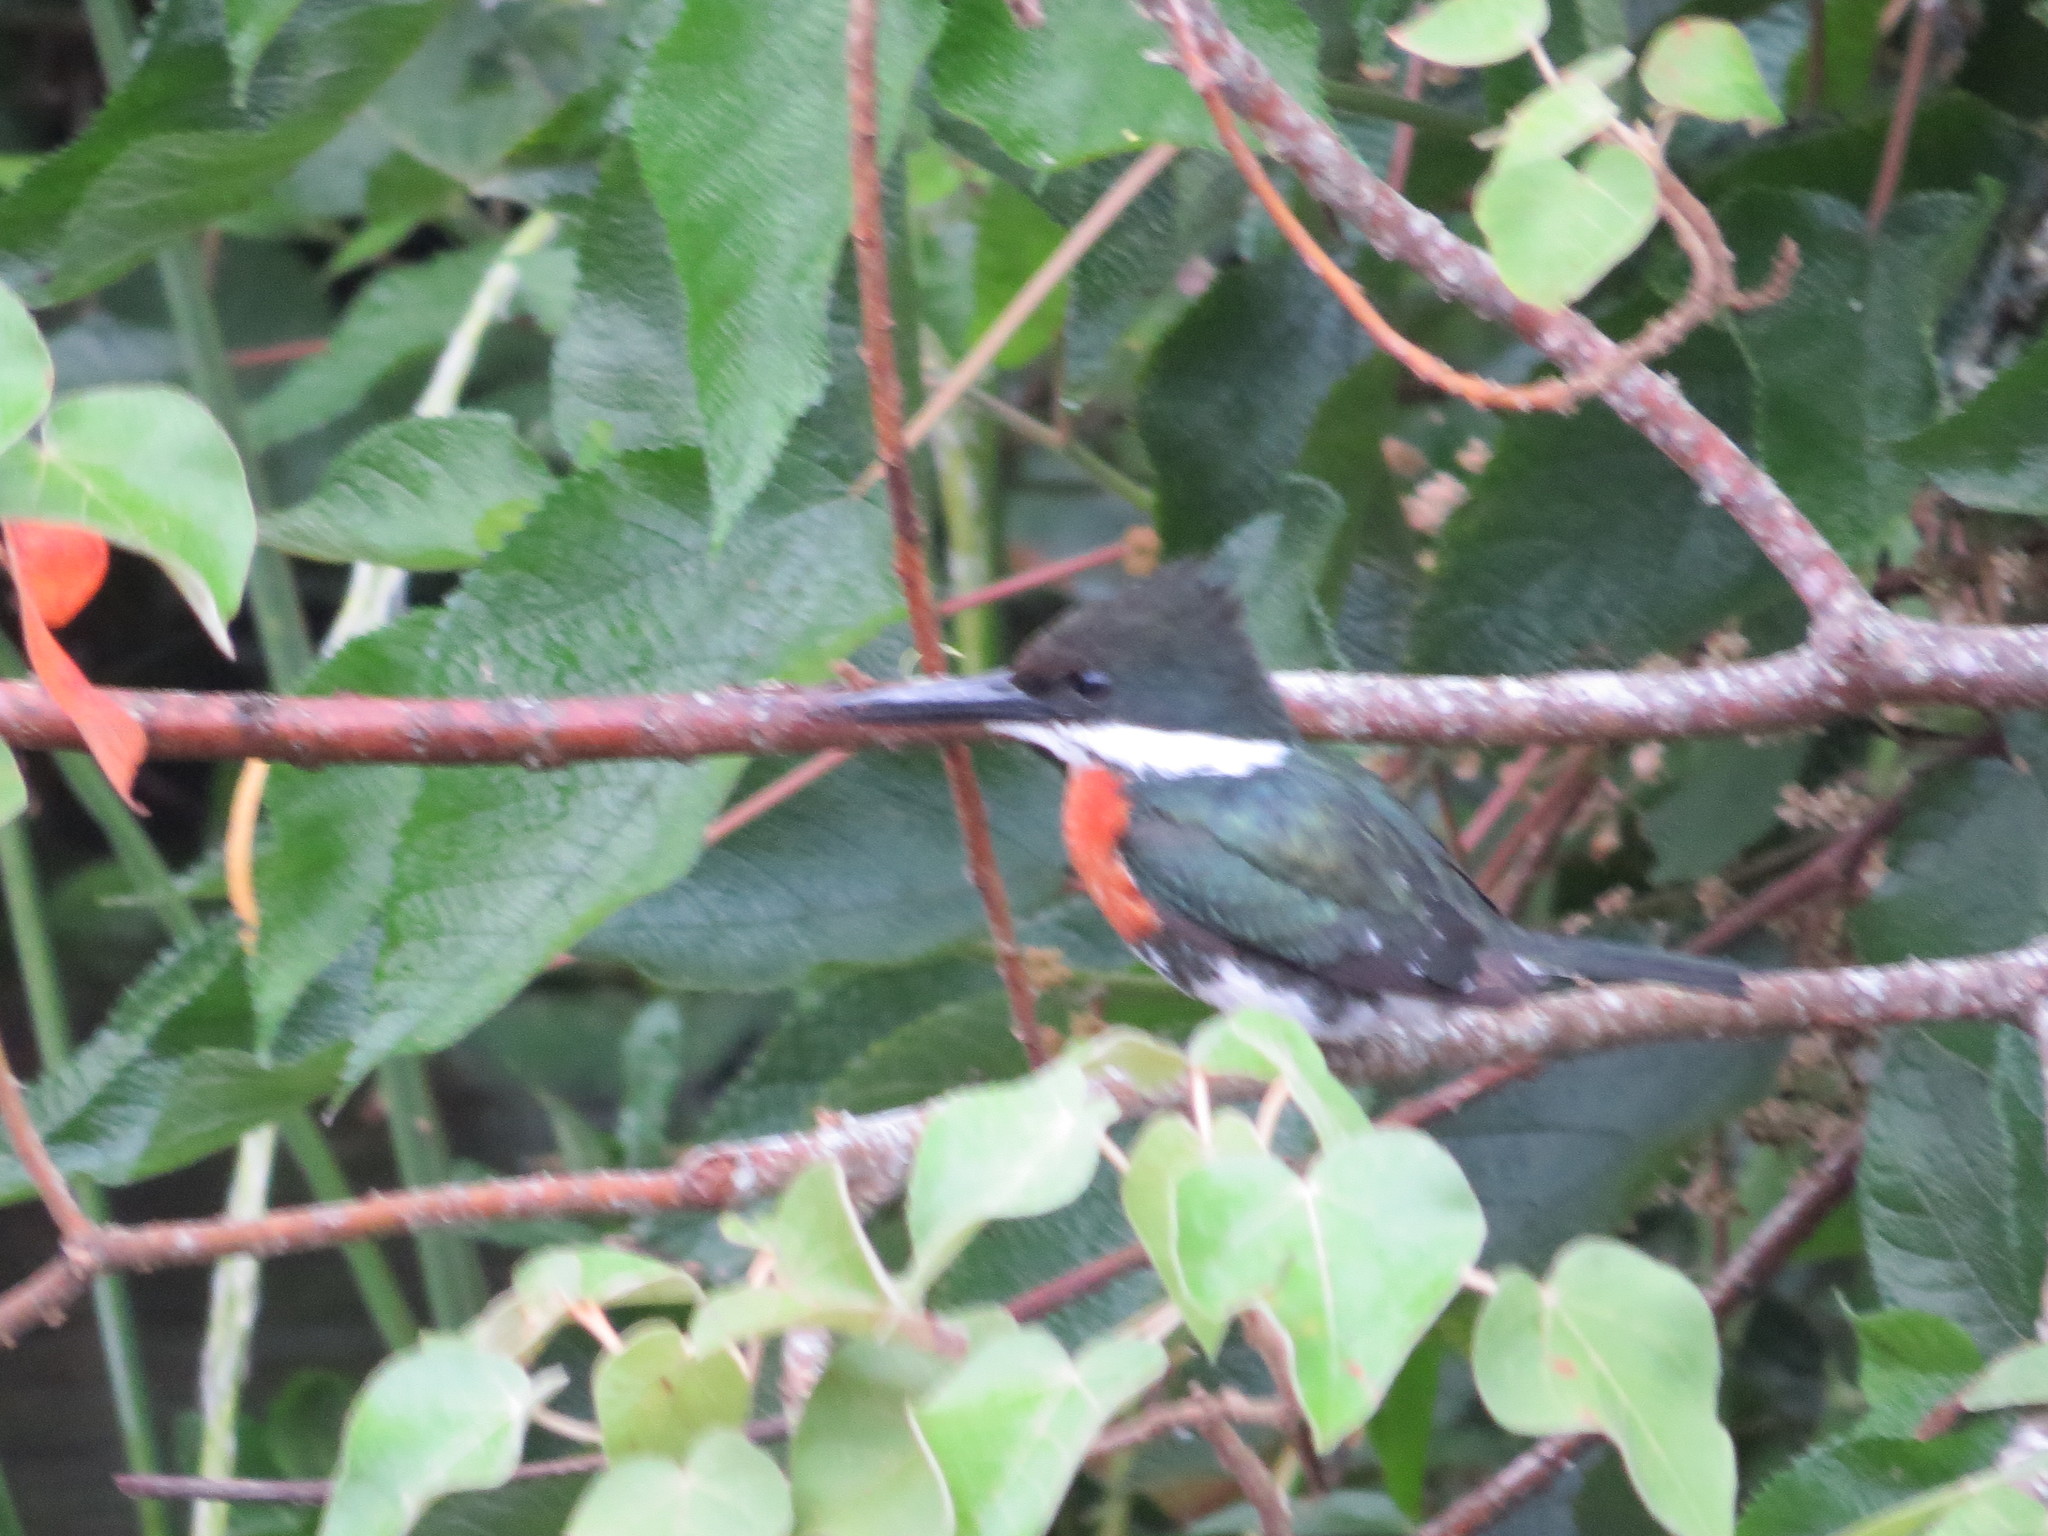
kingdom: Animalia
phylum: Chordata
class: Aves
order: Coraciiformes
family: Alcedinidae
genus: Chloroceryle
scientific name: Chloroceryle americana
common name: Green kingfisher
